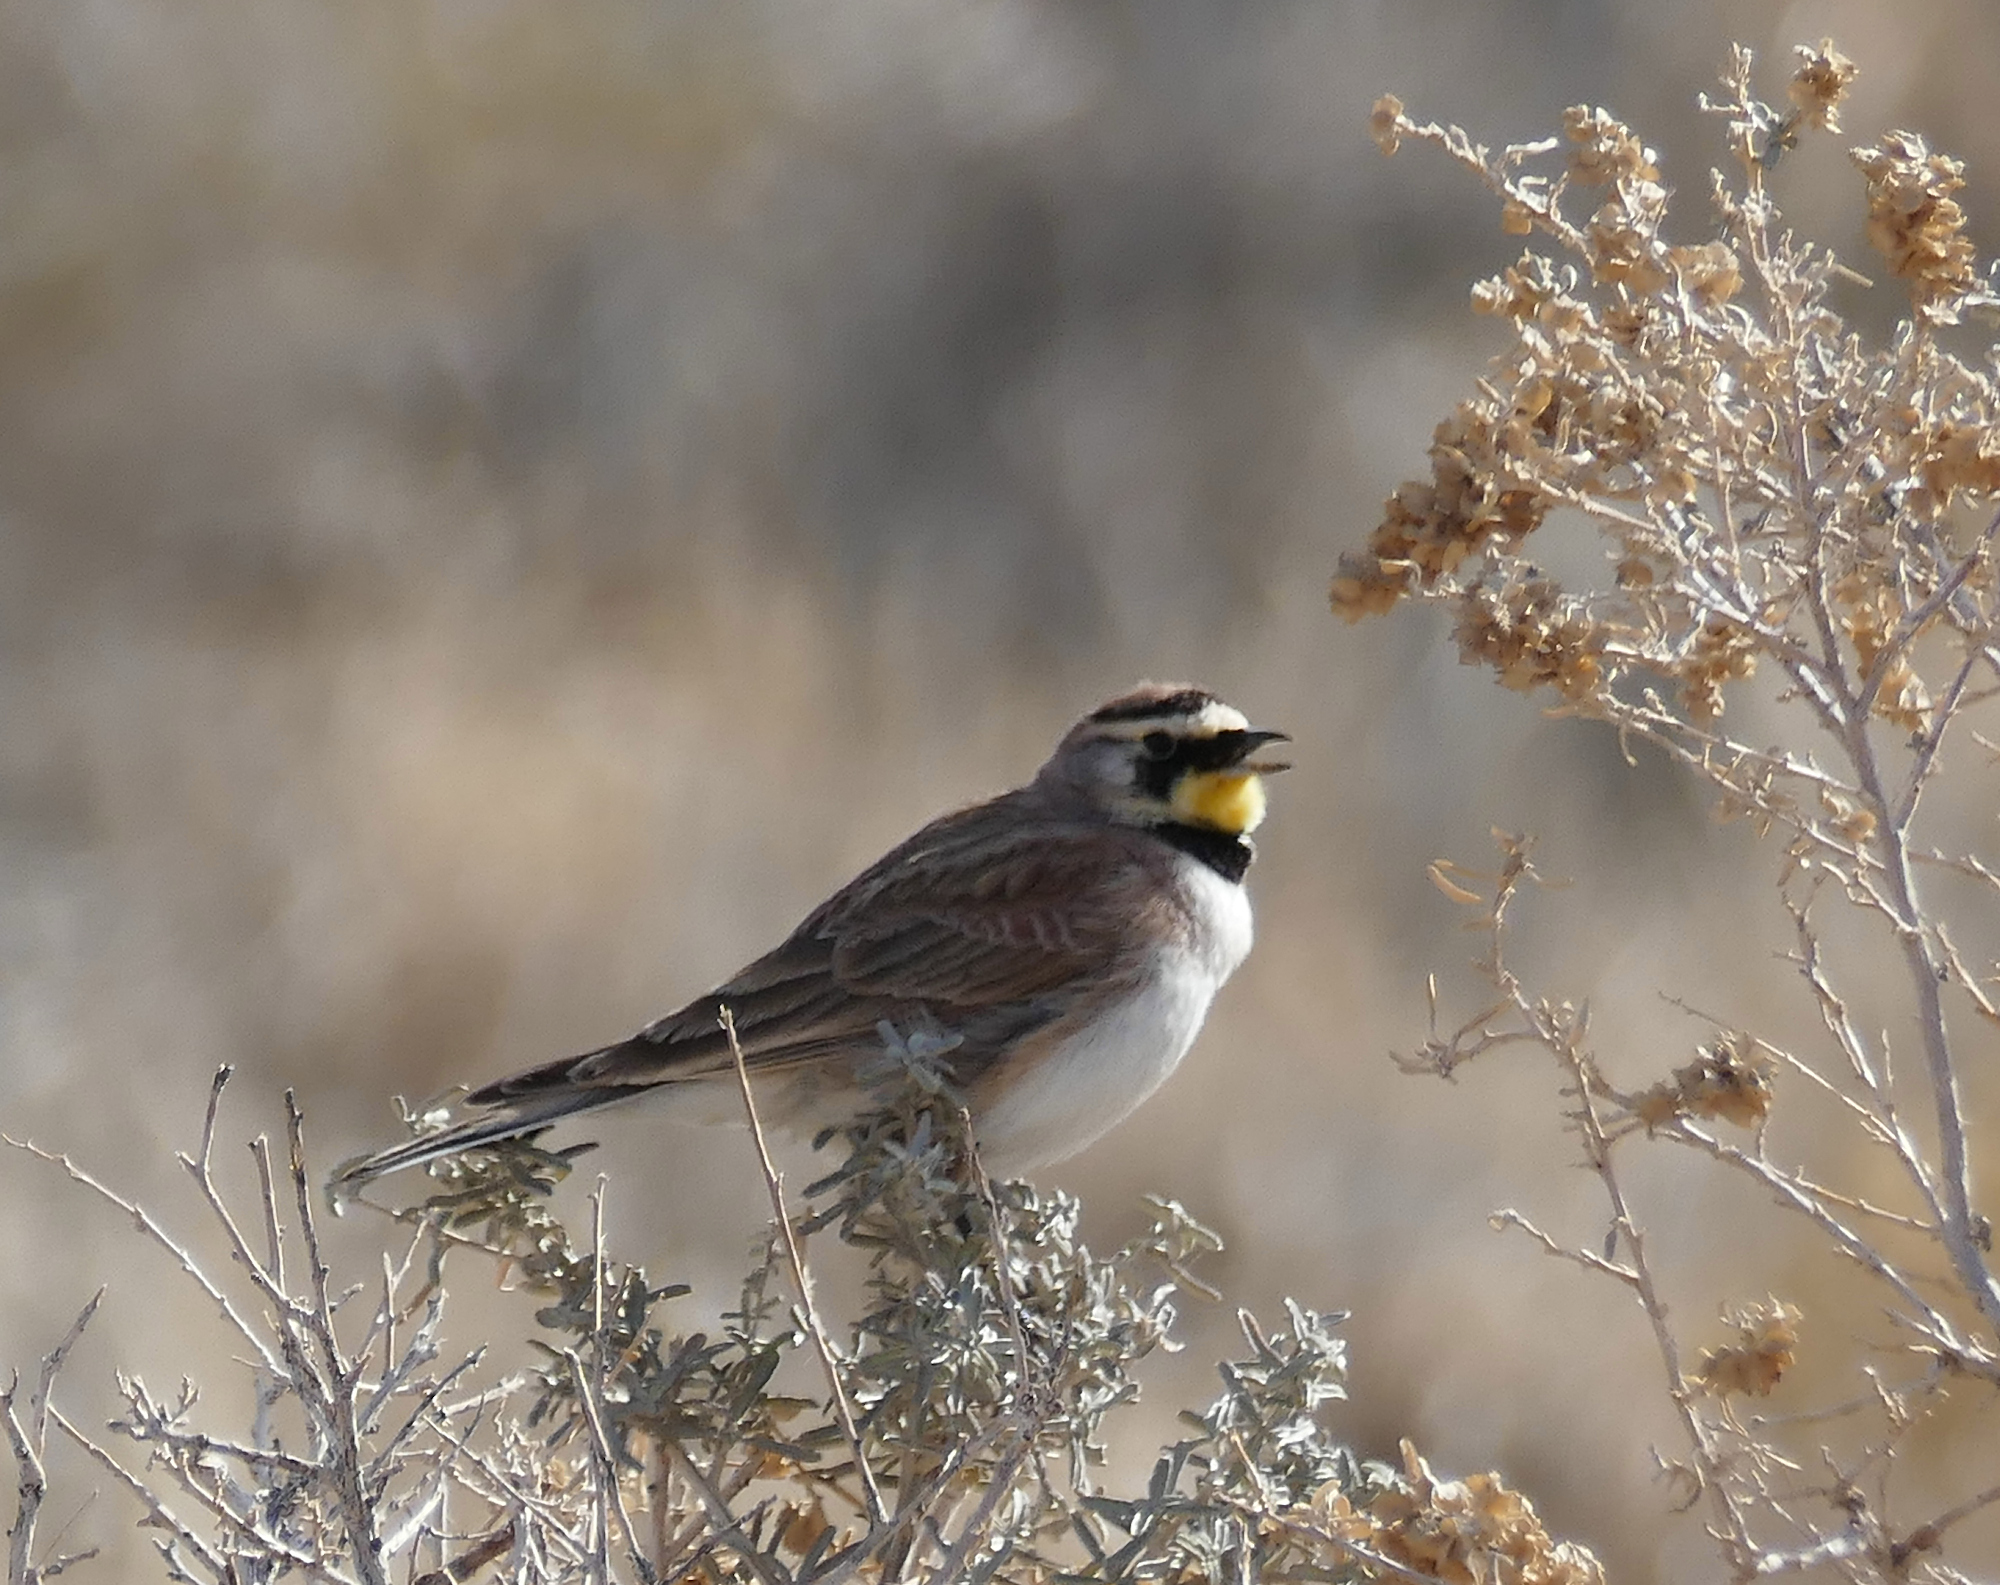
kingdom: Animalia
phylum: Chordata
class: Aves
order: Passeriformes
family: Alaudidae
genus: Eremophila
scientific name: Eremophila alpestris
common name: Horned lark
